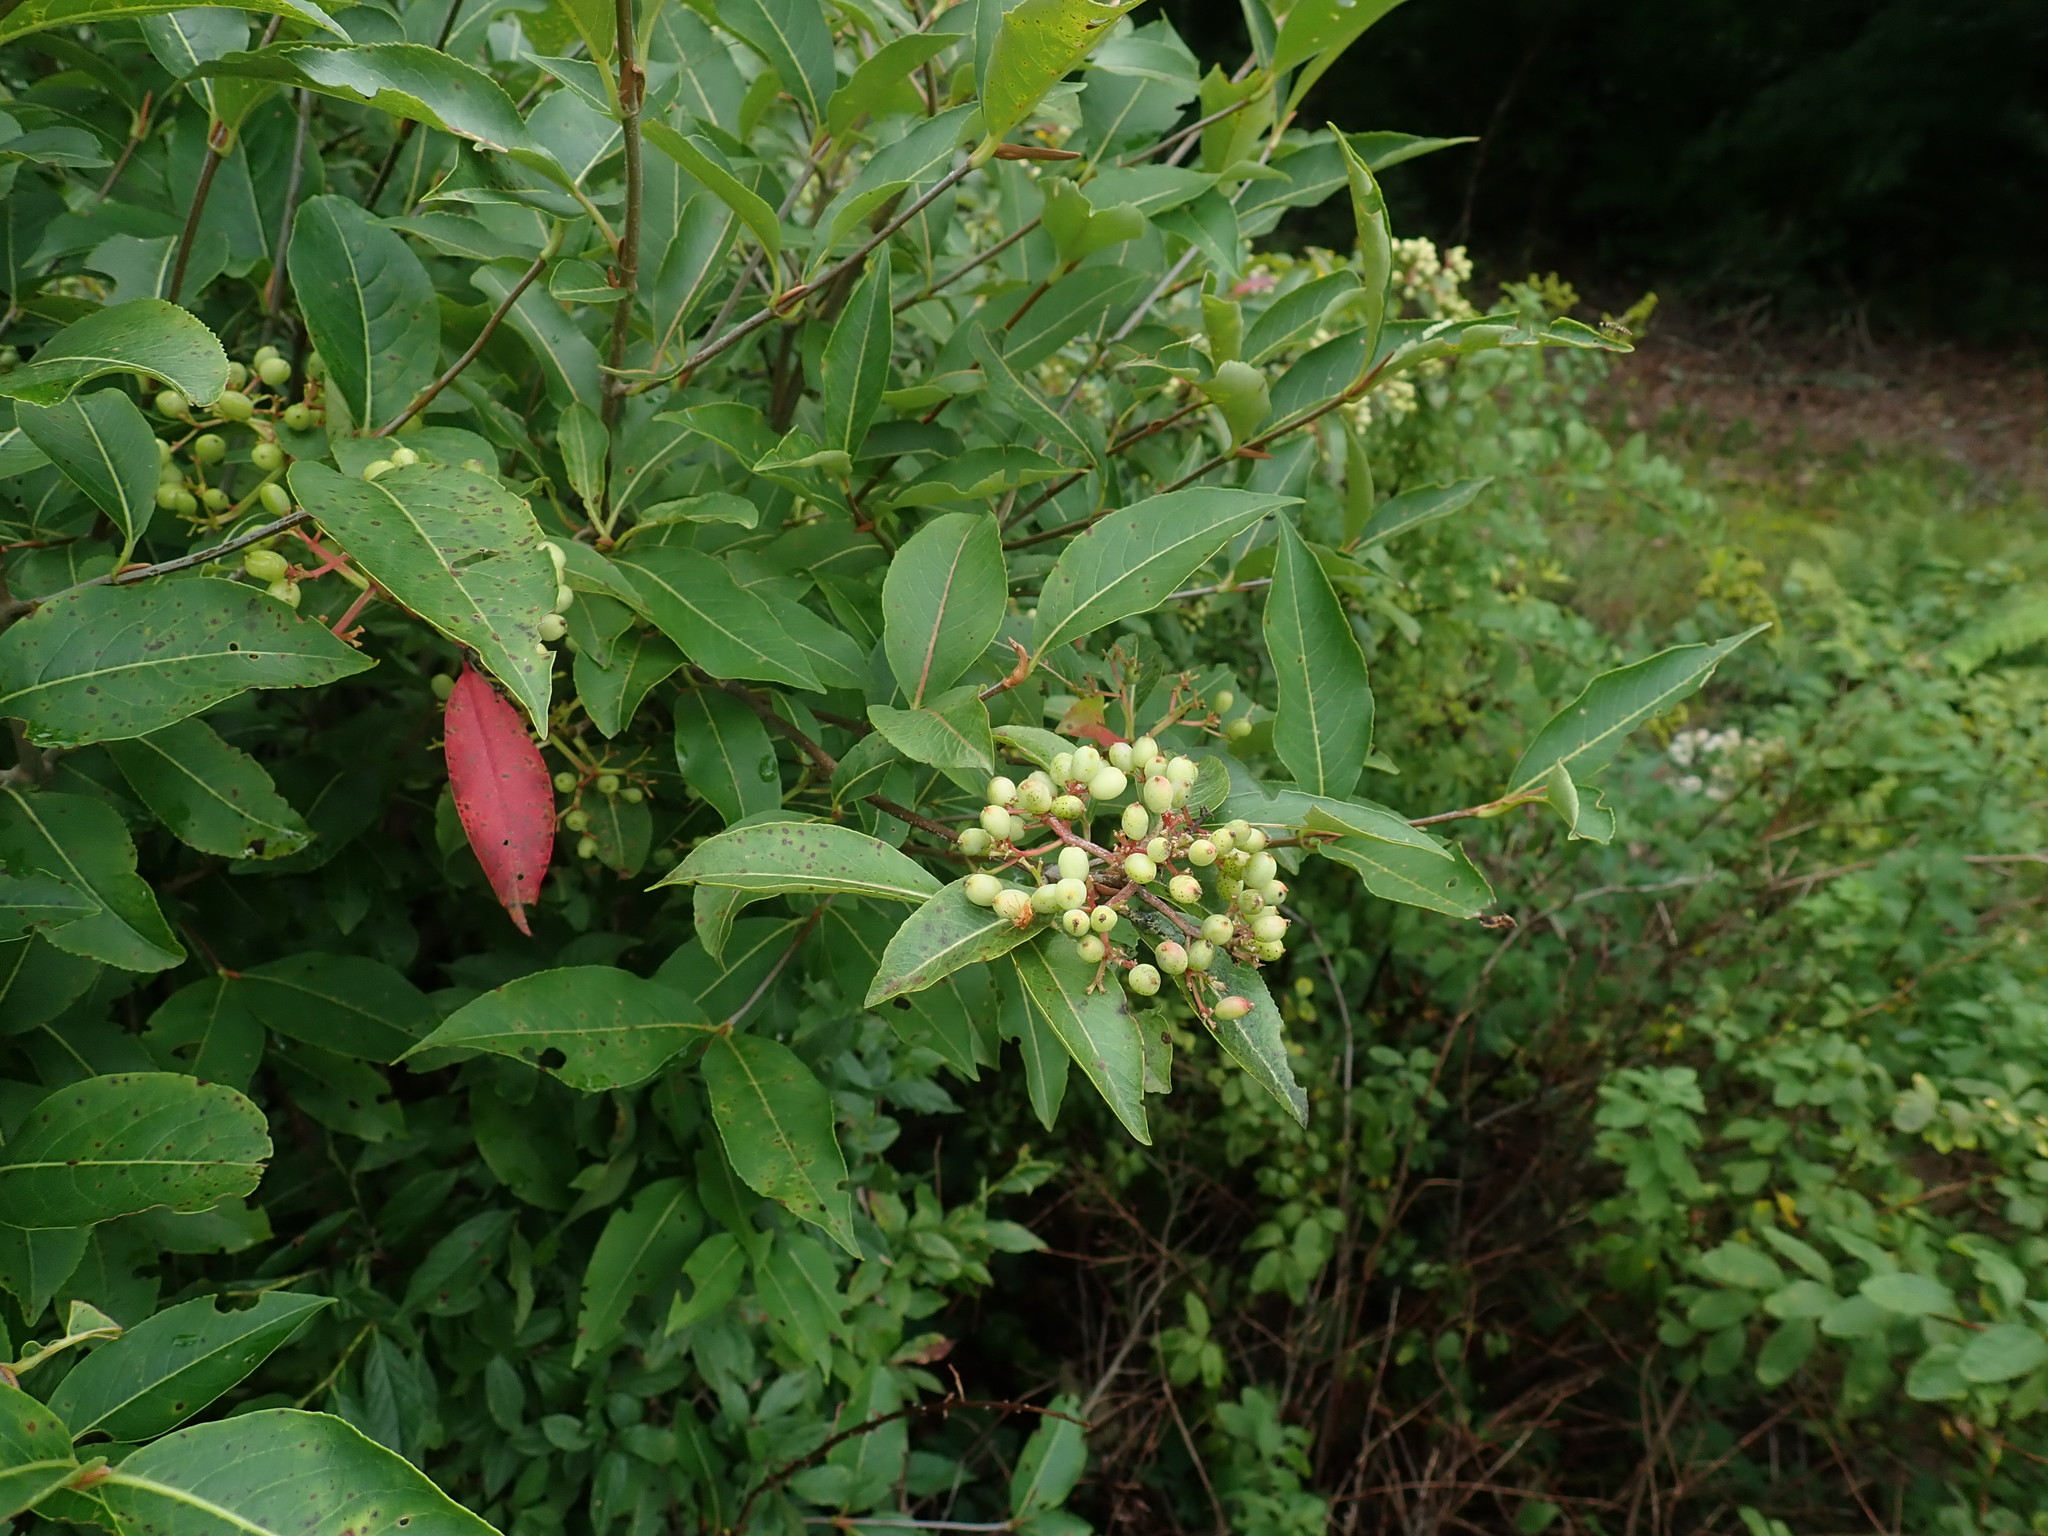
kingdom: Plantae
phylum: Tracheophyta
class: Magnoliopsida
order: Dipsacales
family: Viburnaceae
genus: Viburnum
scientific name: Viburnum cassinoides
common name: Swamp haw
